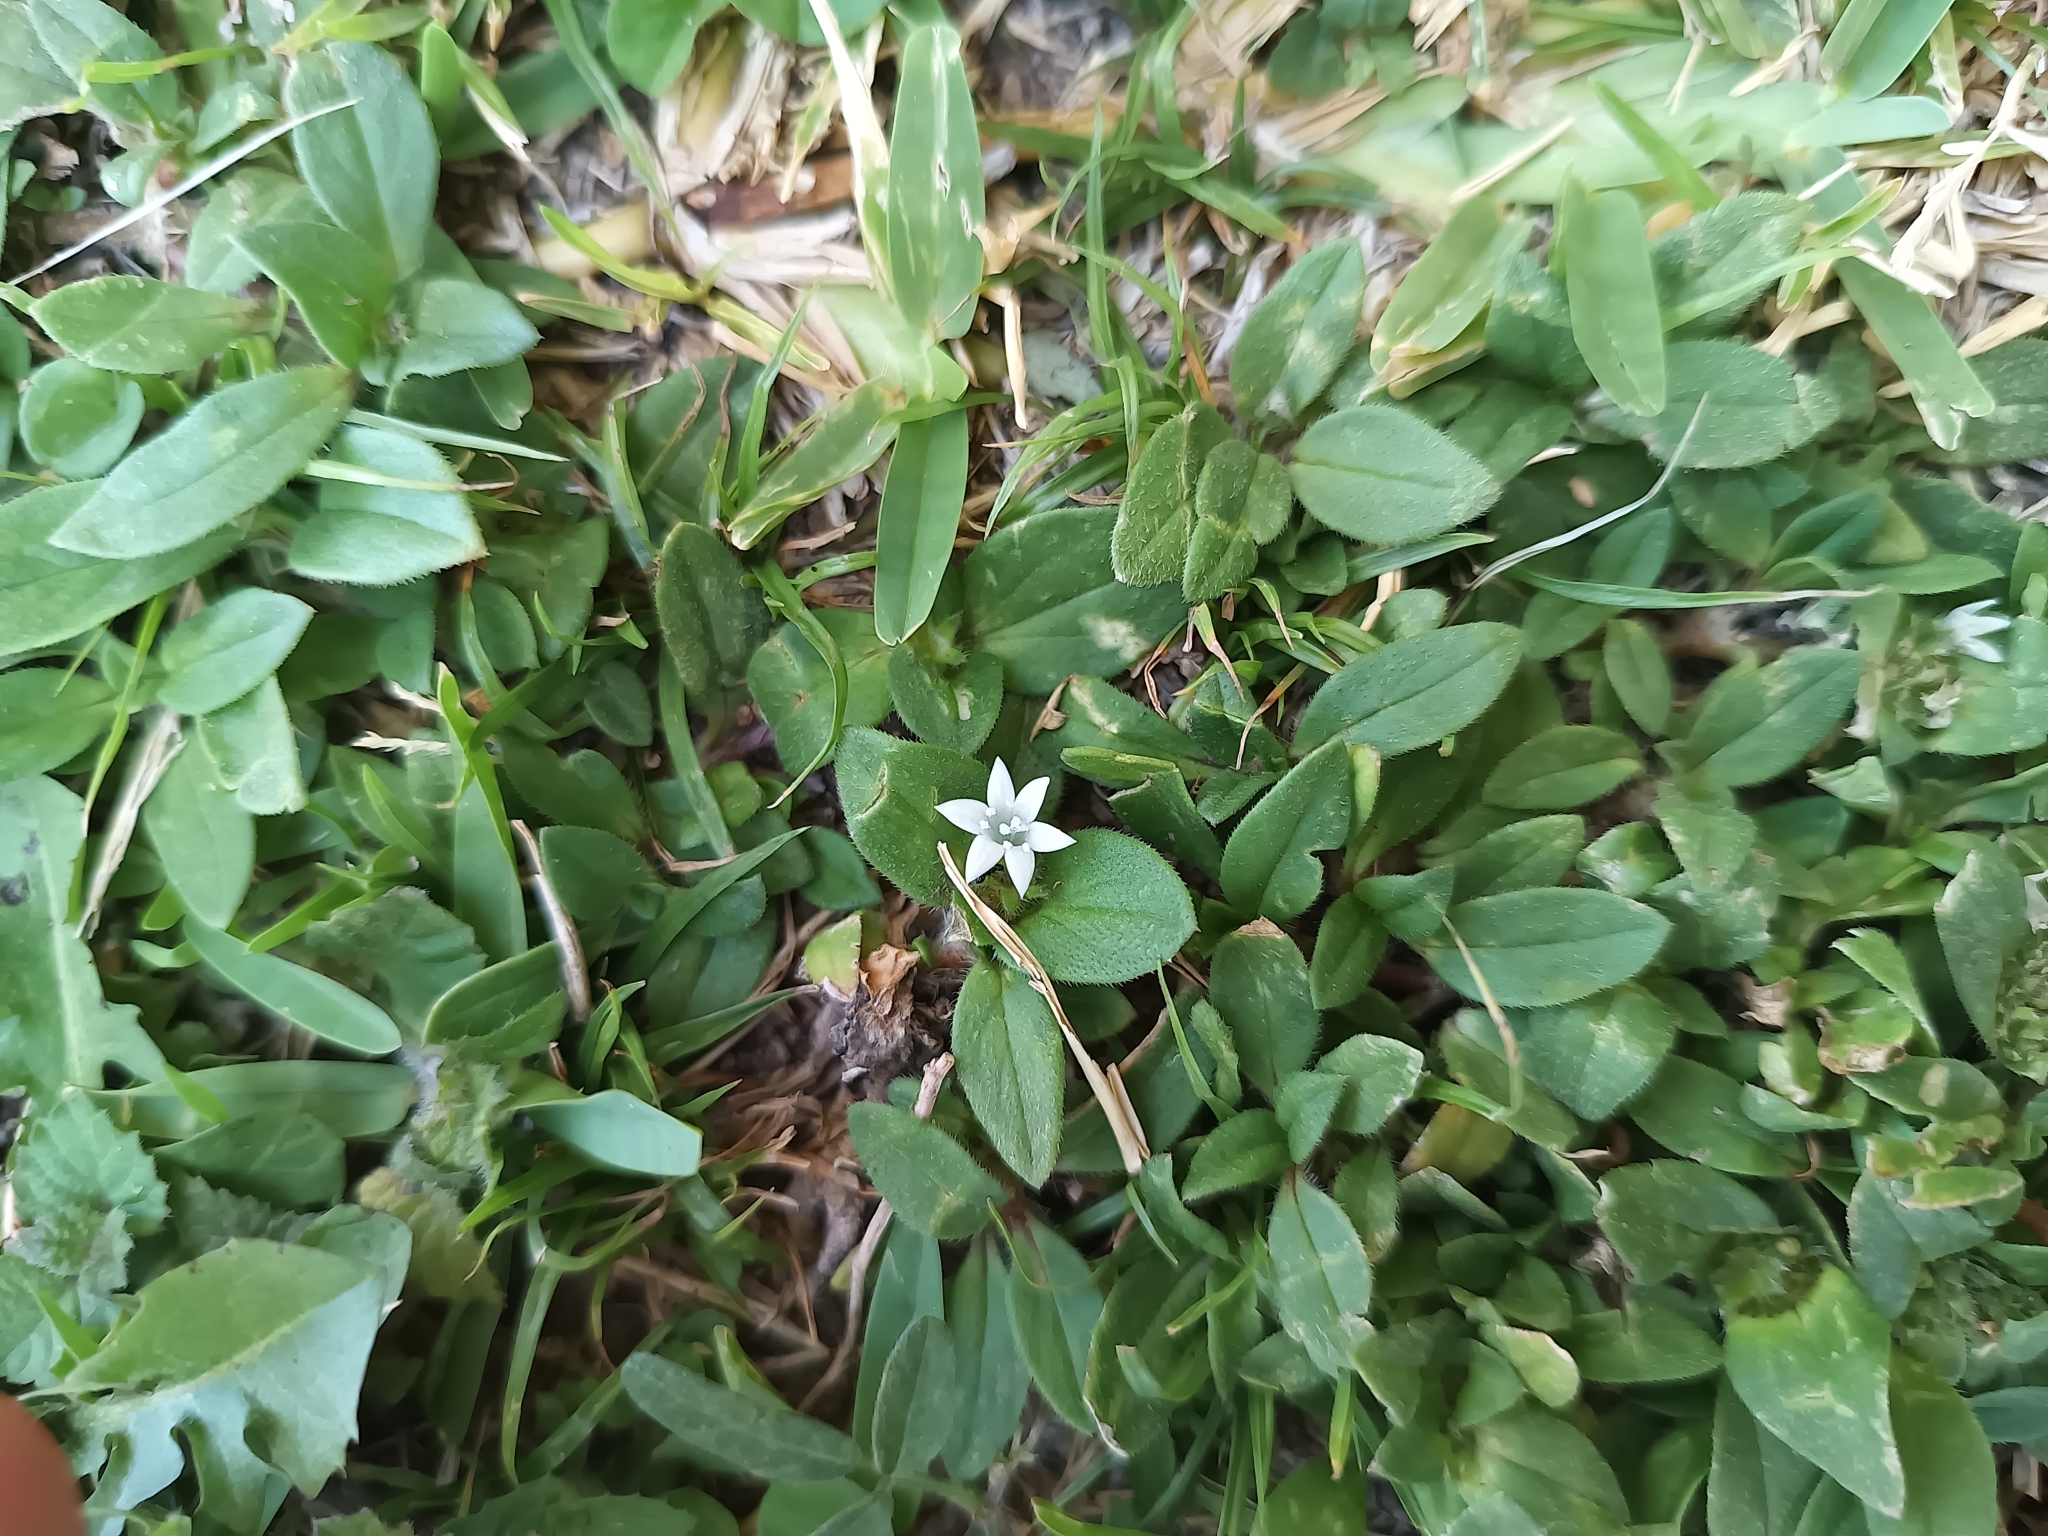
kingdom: Plantae
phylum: Tracheophyta
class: Magnoliopsida
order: Gentianales
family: Rubiaceae
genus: Richardia
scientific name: Richardia scabra
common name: Rough mexican clover
